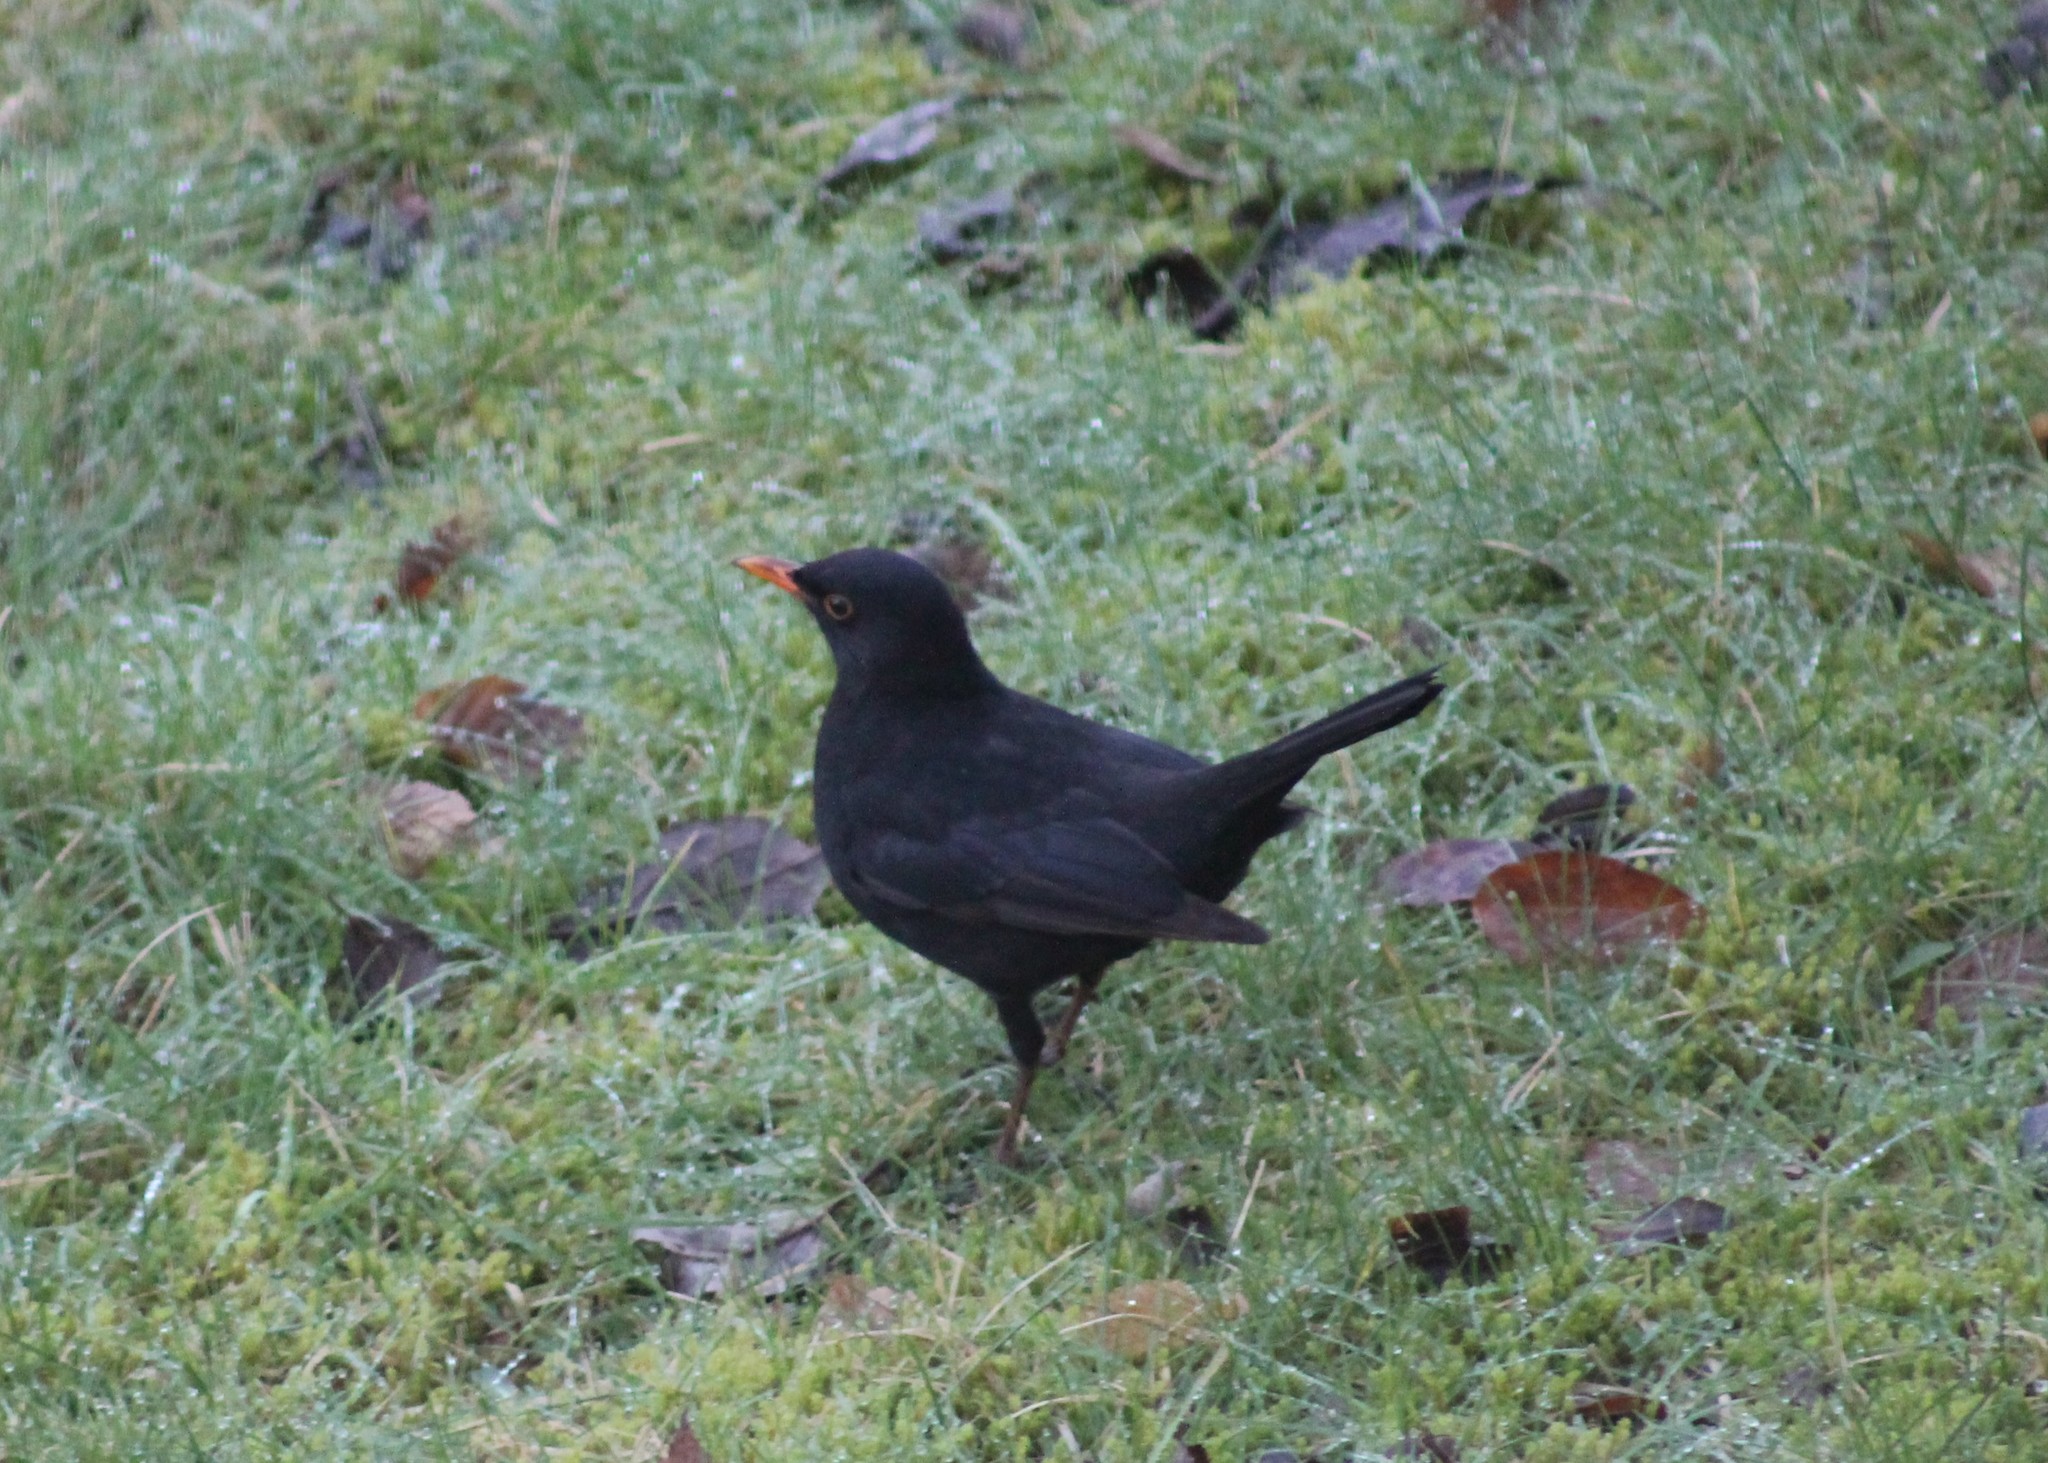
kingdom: Animalia
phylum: Chordata
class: Aves
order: Passeriformes
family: Turdidae
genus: Turdus
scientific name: Turdus merula
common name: Common blackbird
